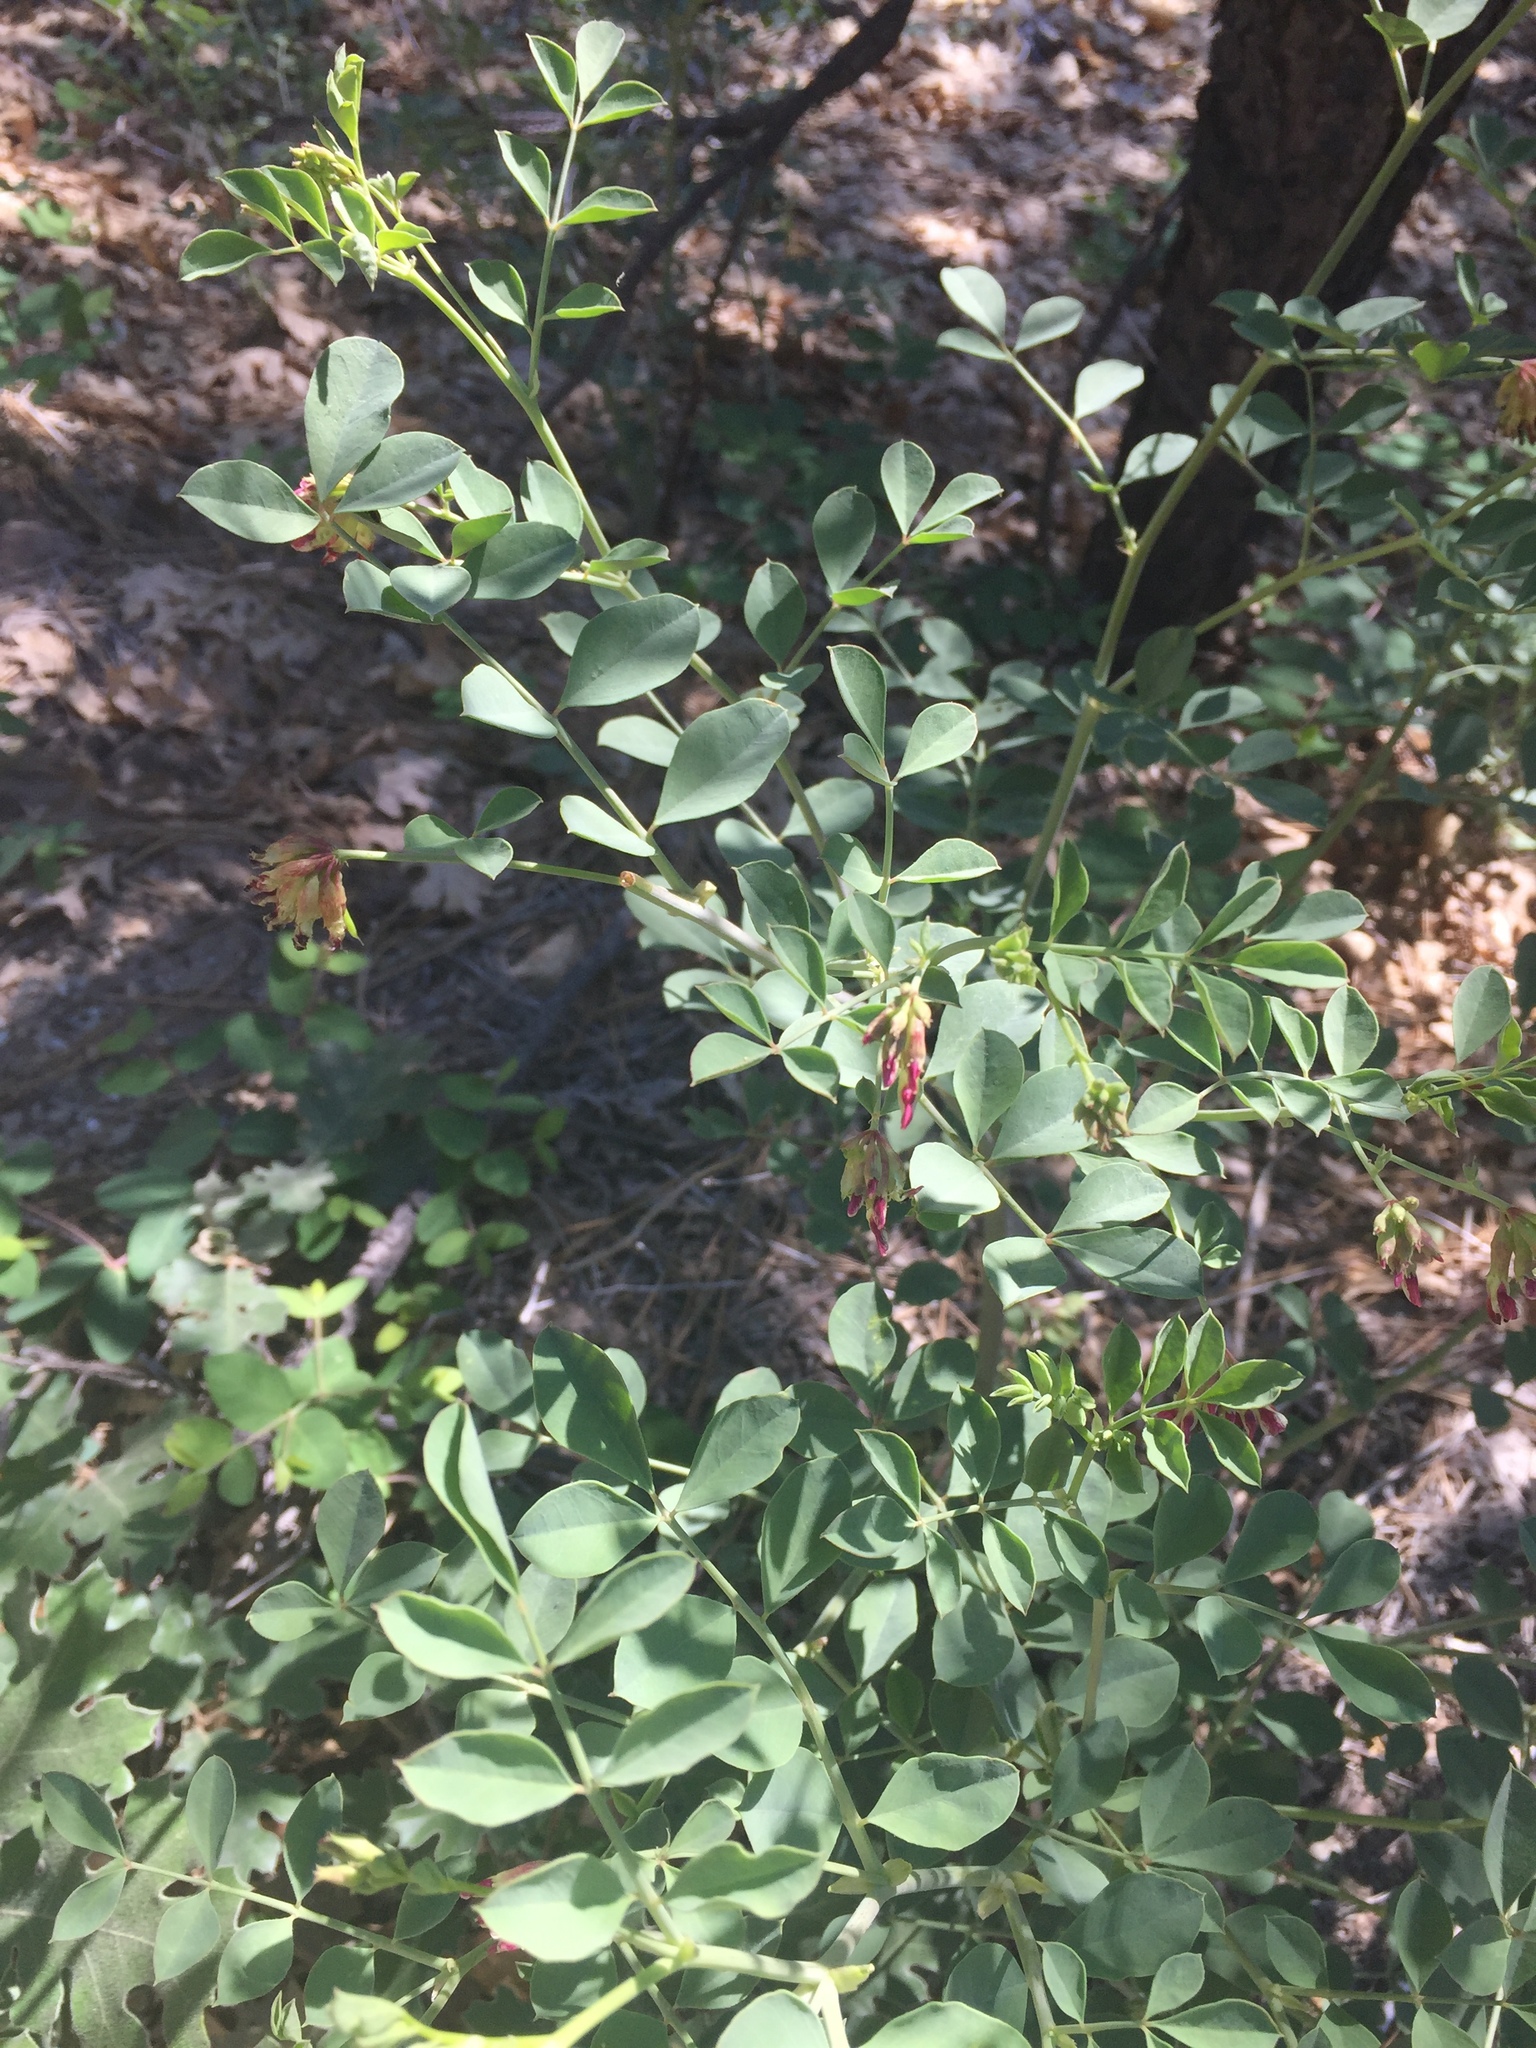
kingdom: Plantae
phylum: Tracheophyta
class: Magnoliopsida
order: Fabales
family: Fabaceae
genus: Hosackia
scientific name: Hosackia crassifolia
